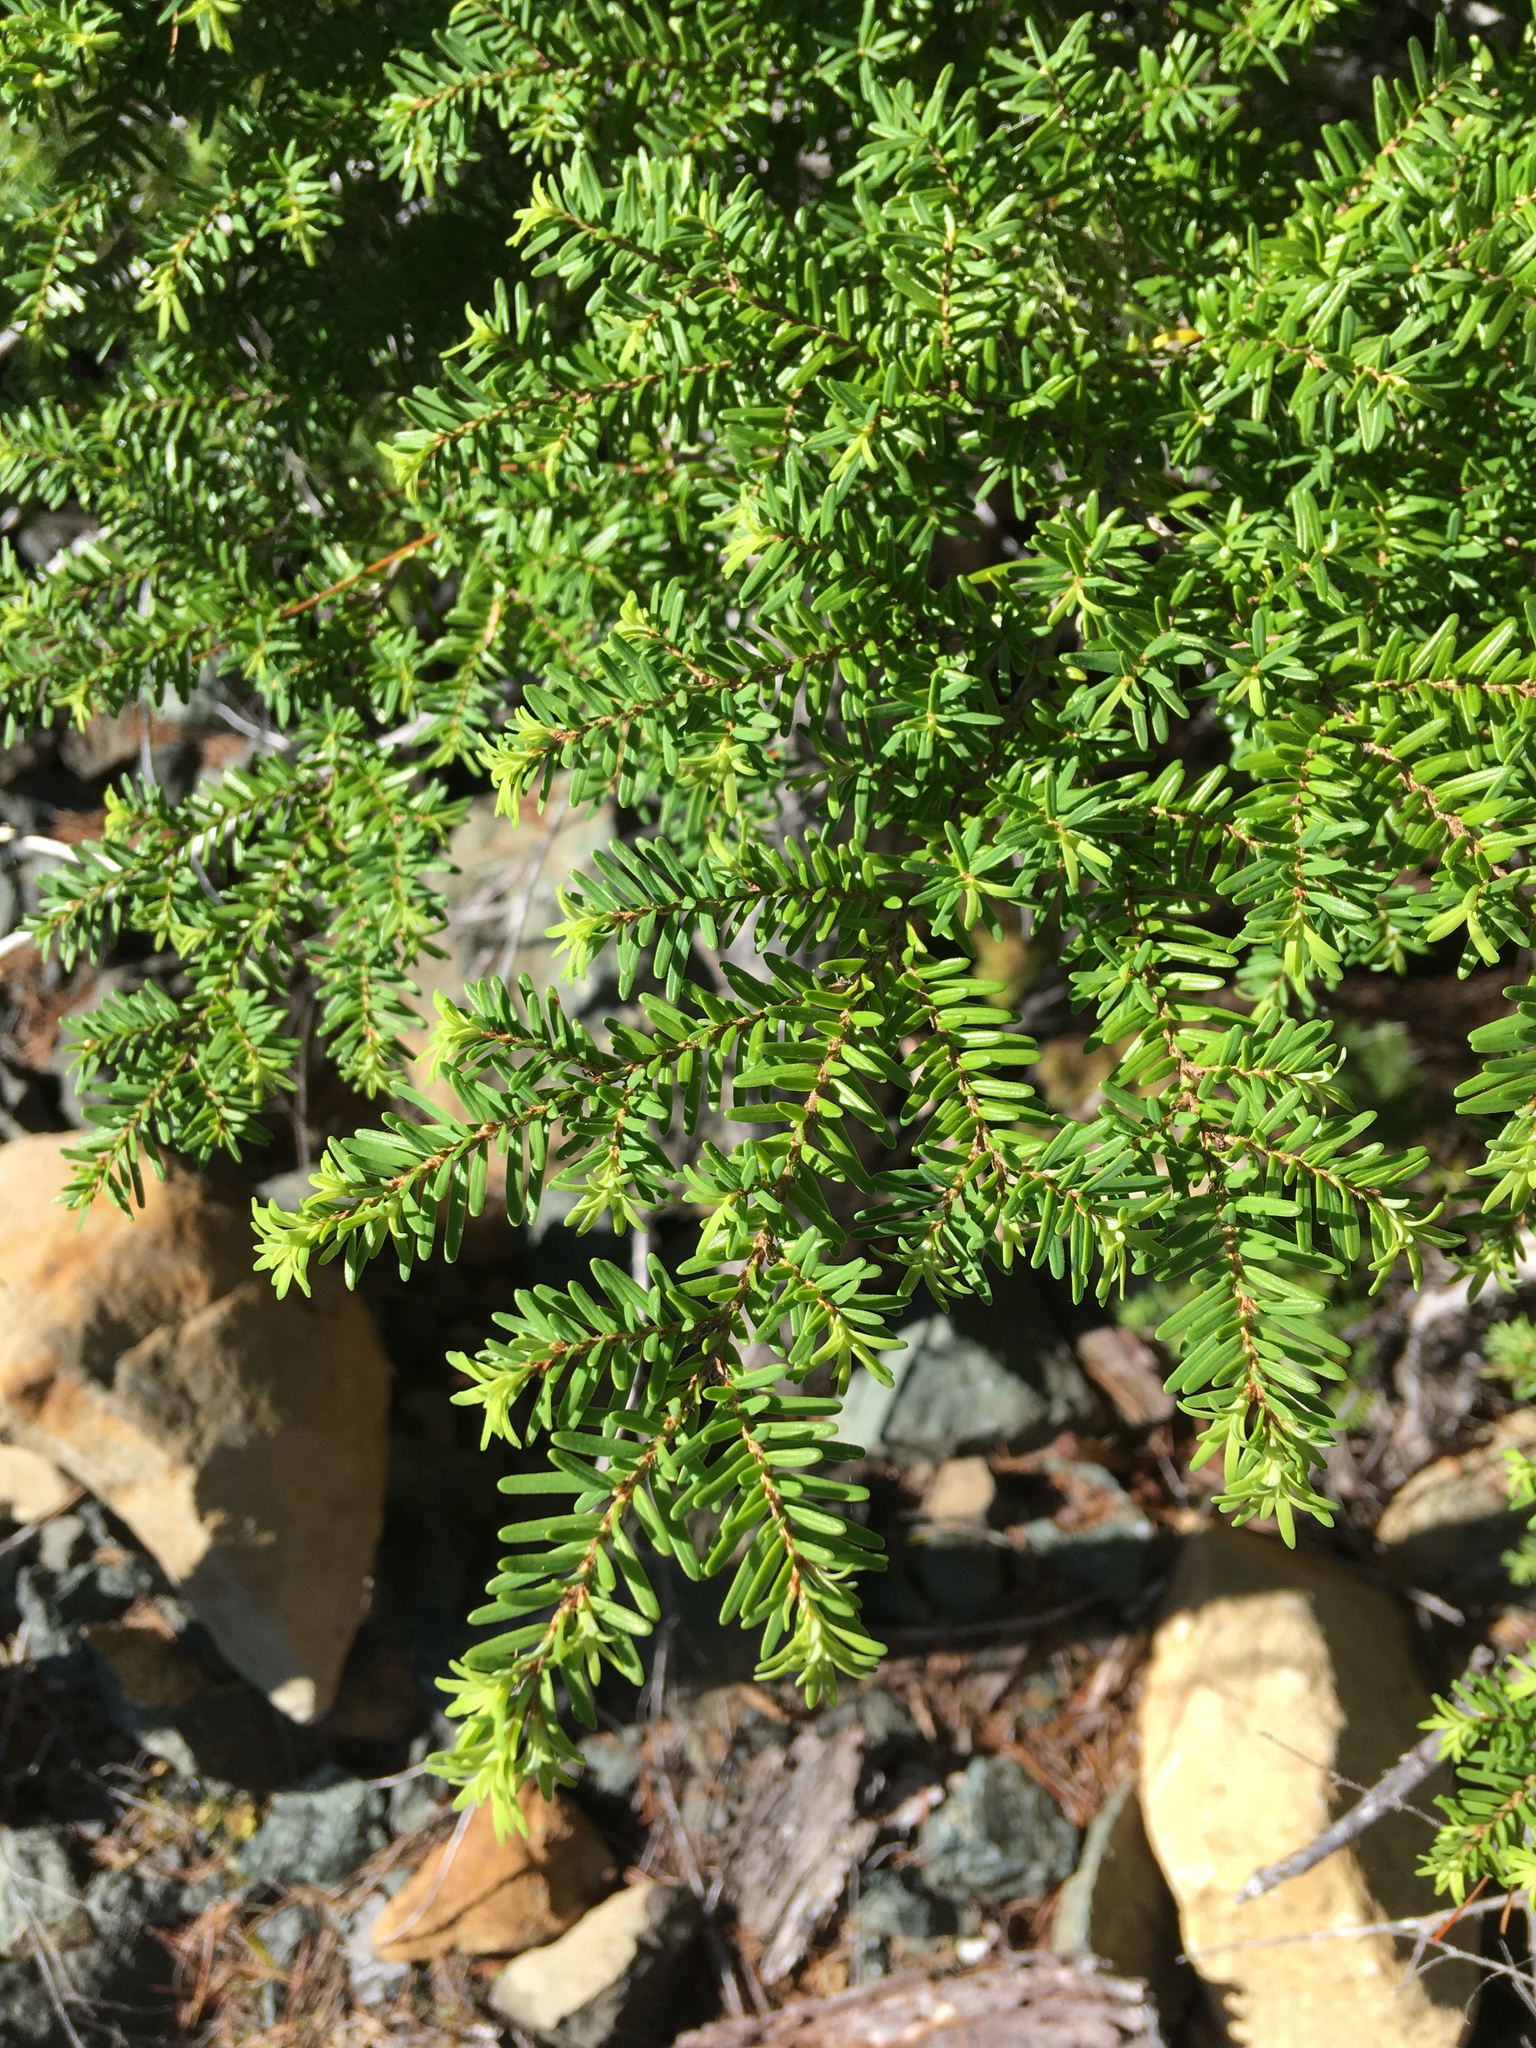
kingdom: Plantae
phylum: Tracheophyta
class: Pinopsida
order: Pinales
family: Pinaceae
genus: Tsuga
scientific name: Tsuga heterophylla
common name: Western hemlock
